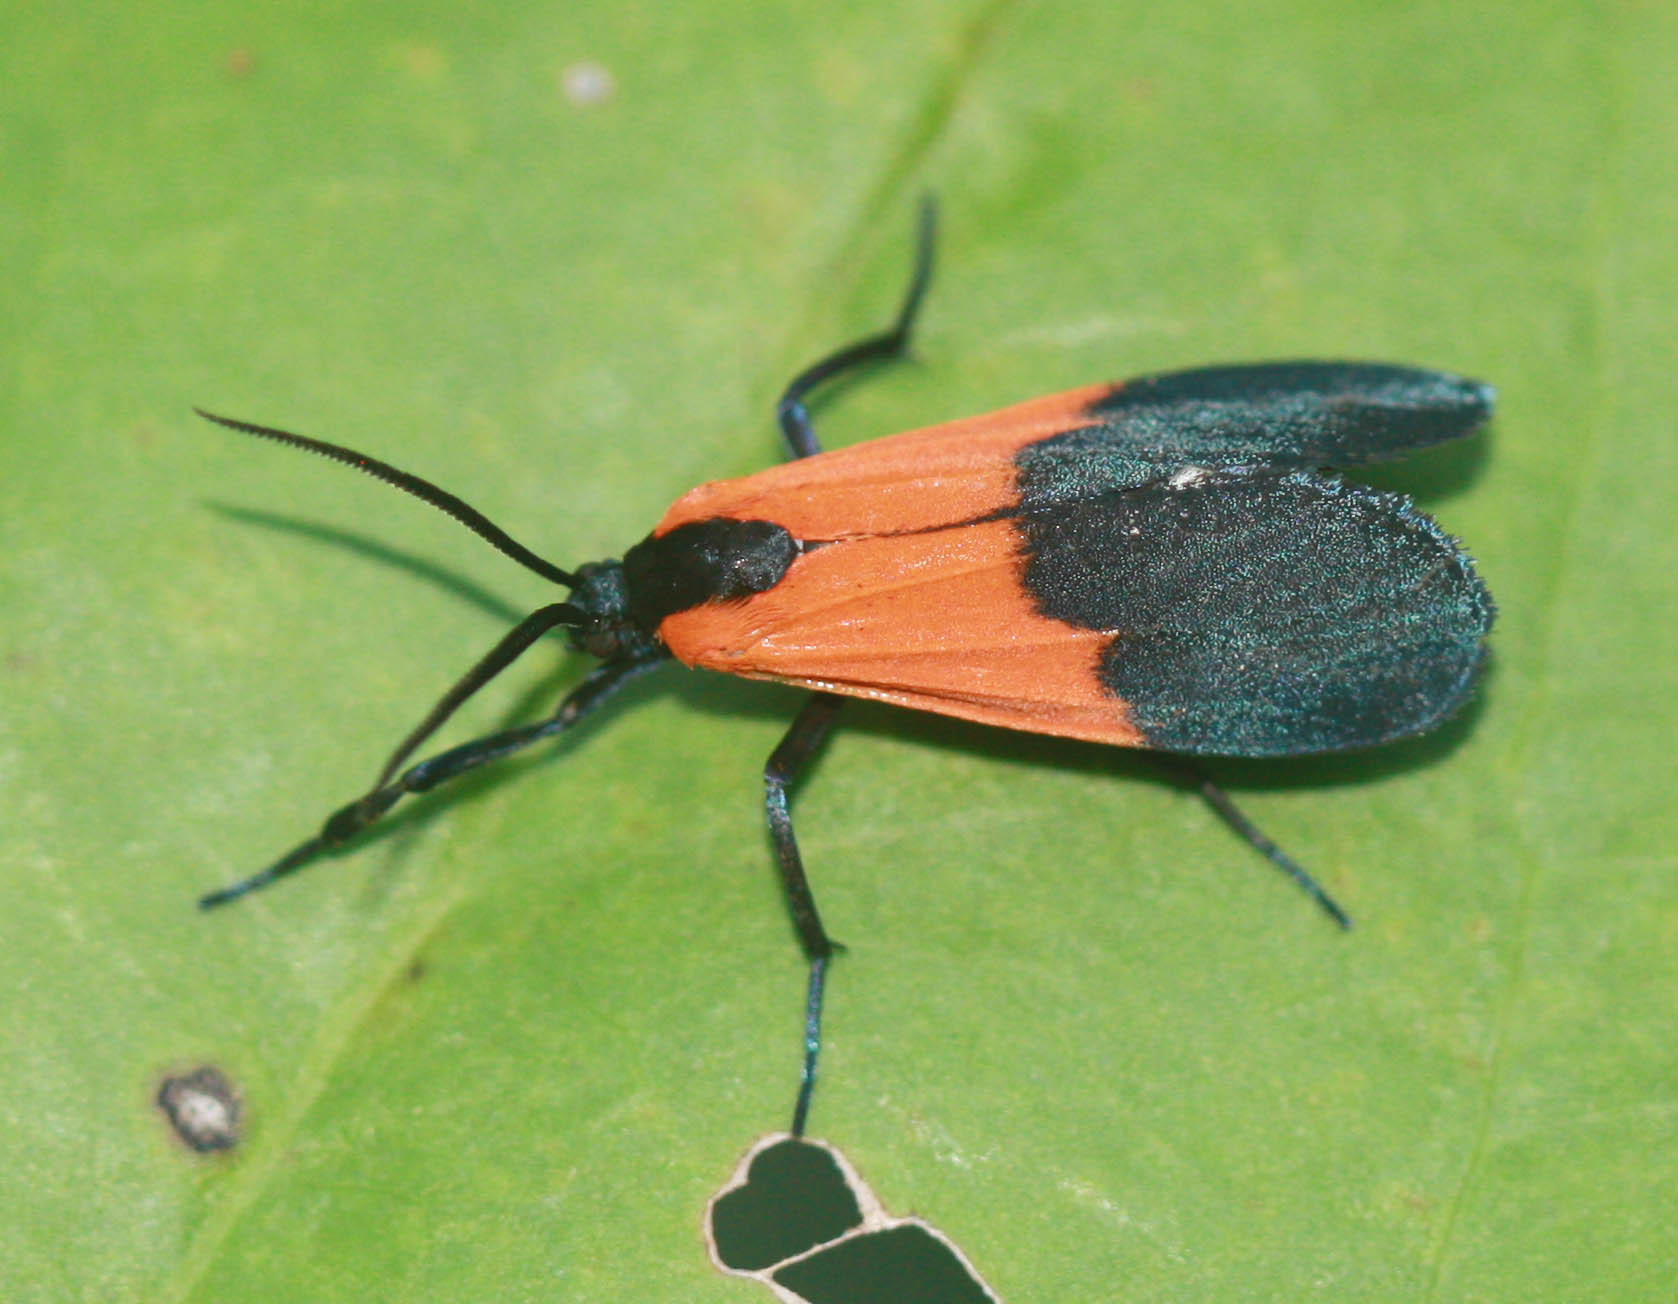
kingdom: Animalia
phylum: Arthropoda
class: Insecta
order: Lepidoptera
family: Erebidae
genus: Lycomorpha
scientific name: Lycomorpha pholus
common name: Black-and-yellow lichen moth
